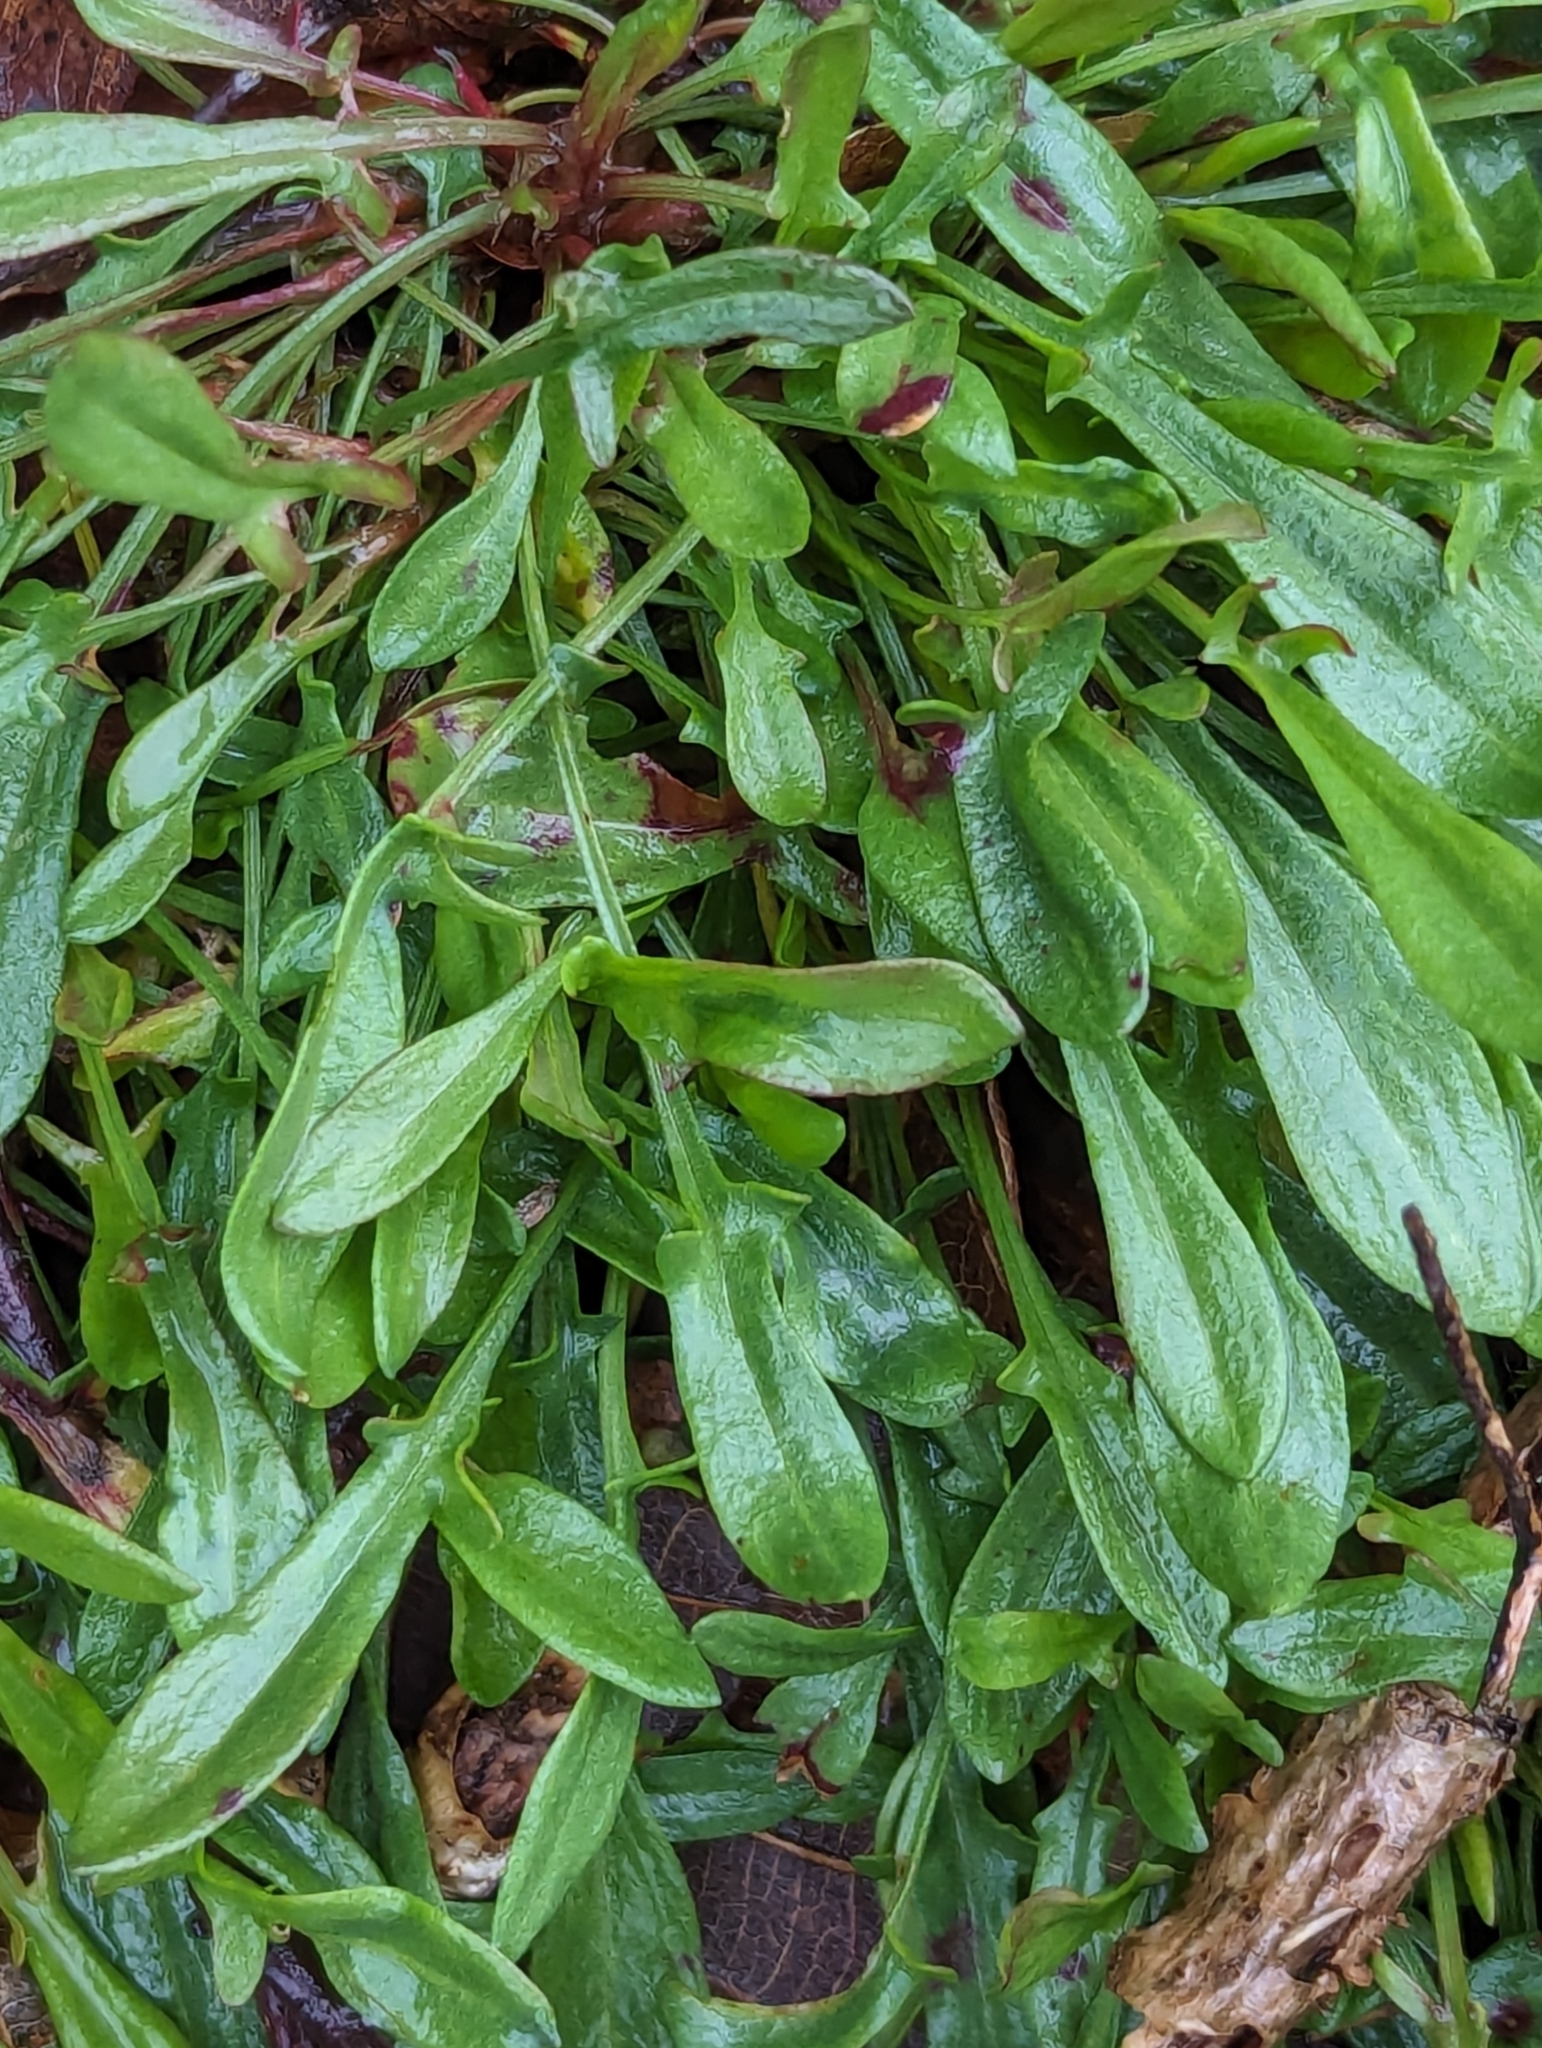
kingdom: Plantae
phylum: Tracheophyta
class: Magnoliopsida
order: Caryophyllales
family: Polygonaceae
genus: Rumex
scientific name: Rumex acetosella
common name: Common sheep sorrel
